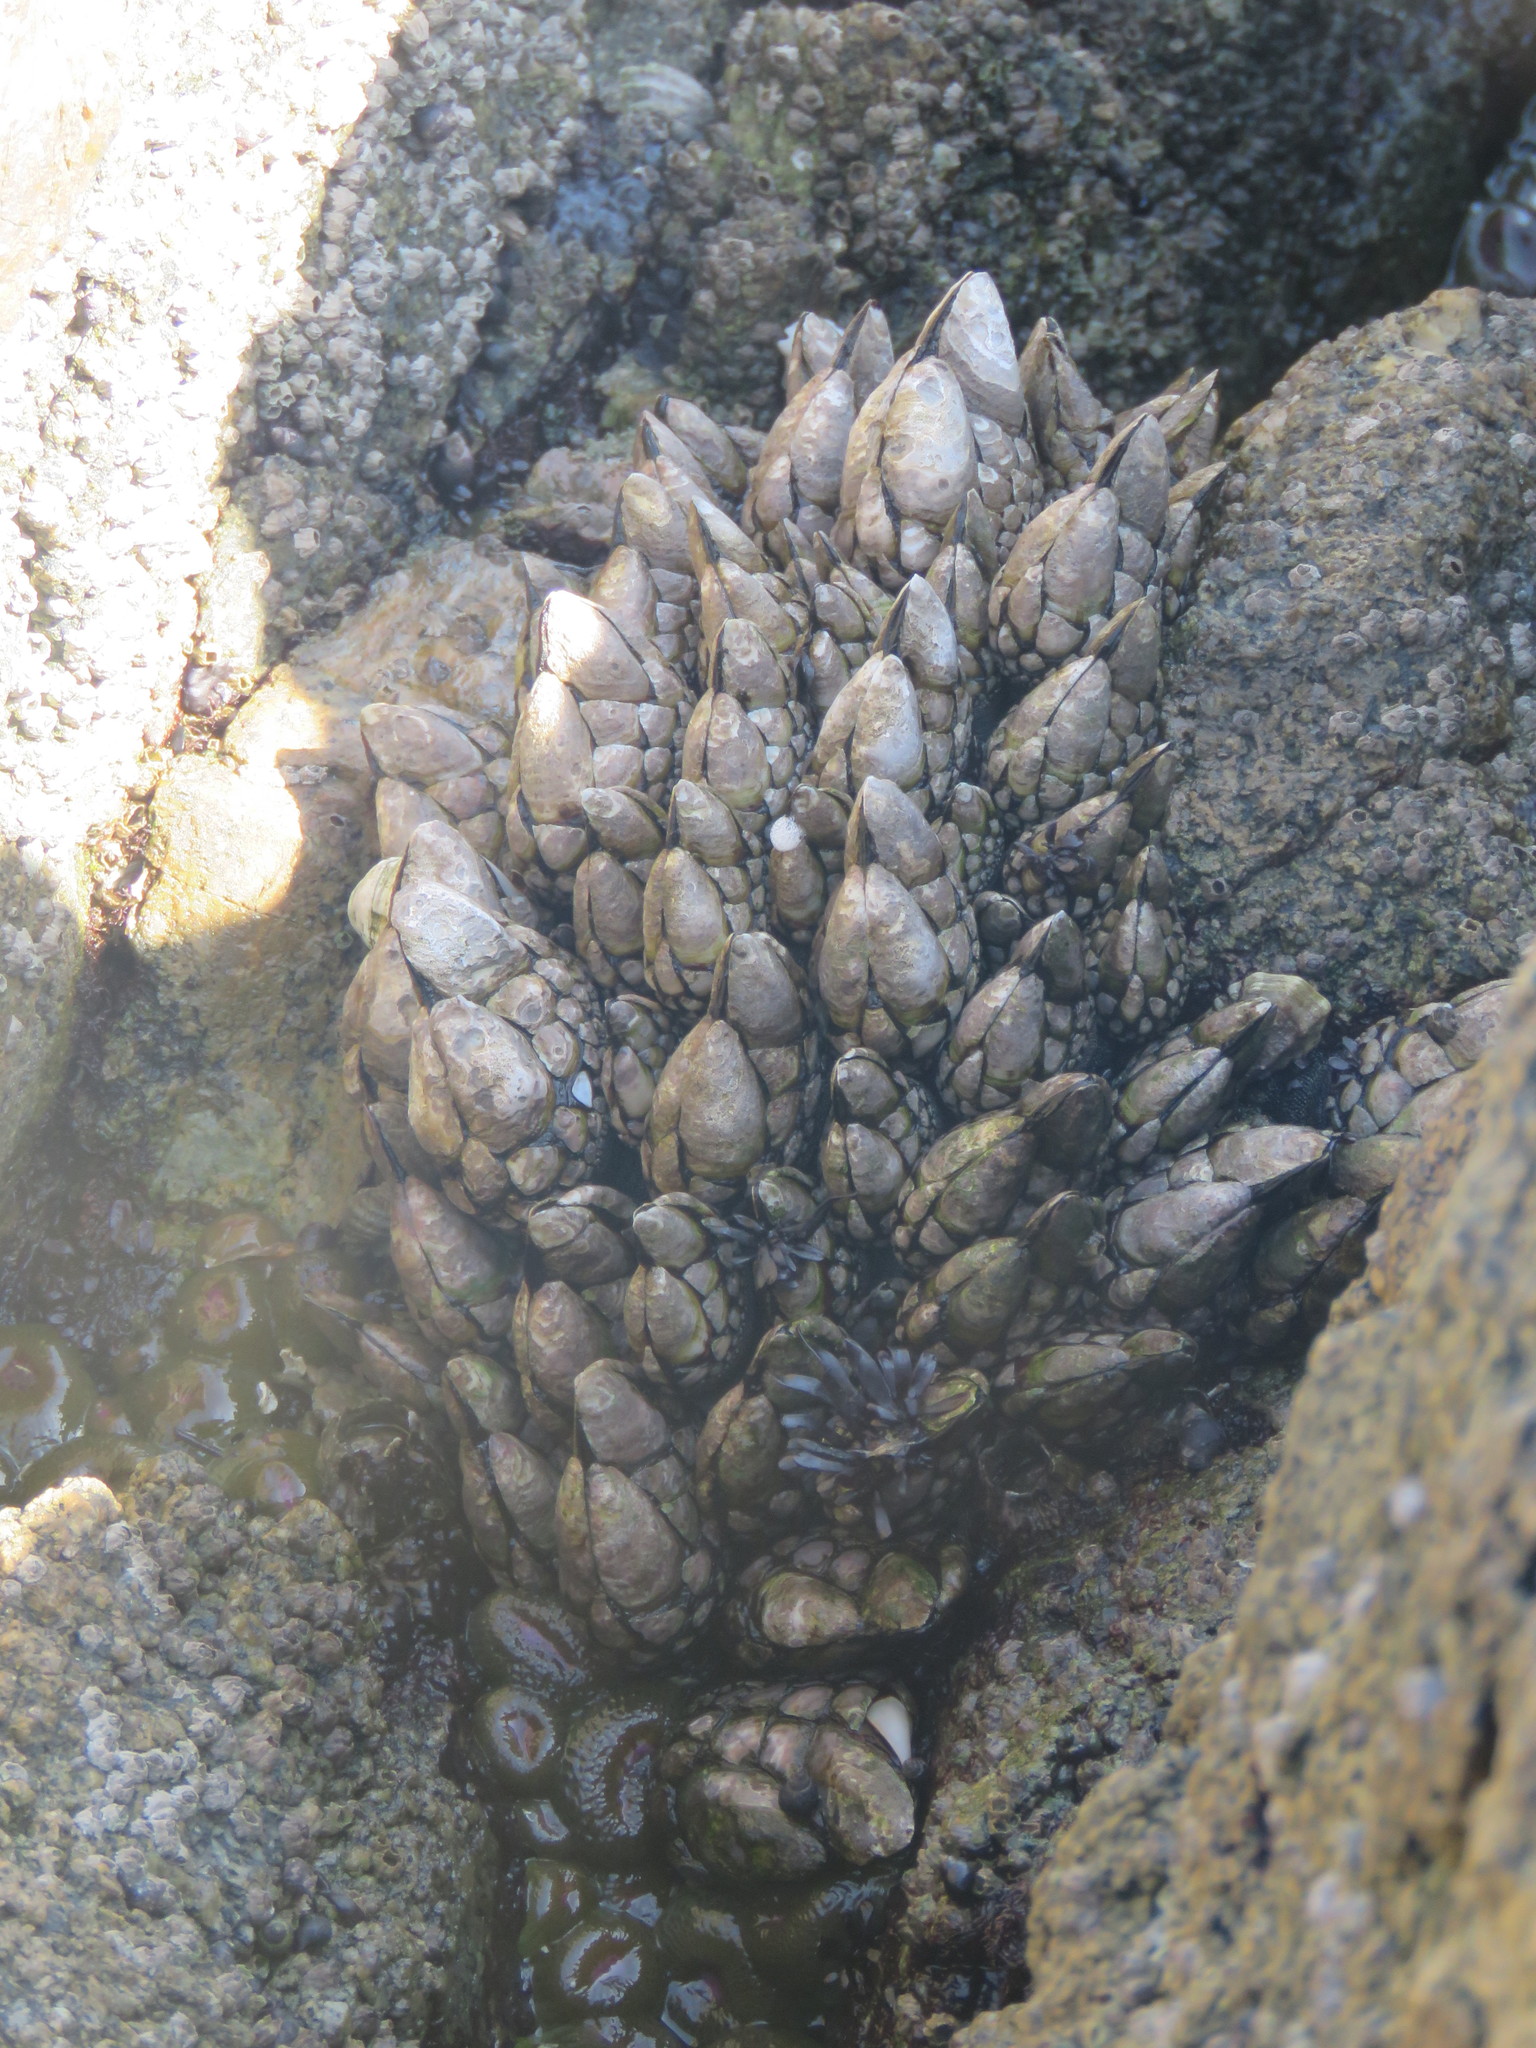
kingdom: Animalia
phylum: Arthropoda
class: Maxillopoda
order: Pedunculata
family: Pollicipedidae
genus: Pollicipes
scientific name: Pollicipes polymerus
